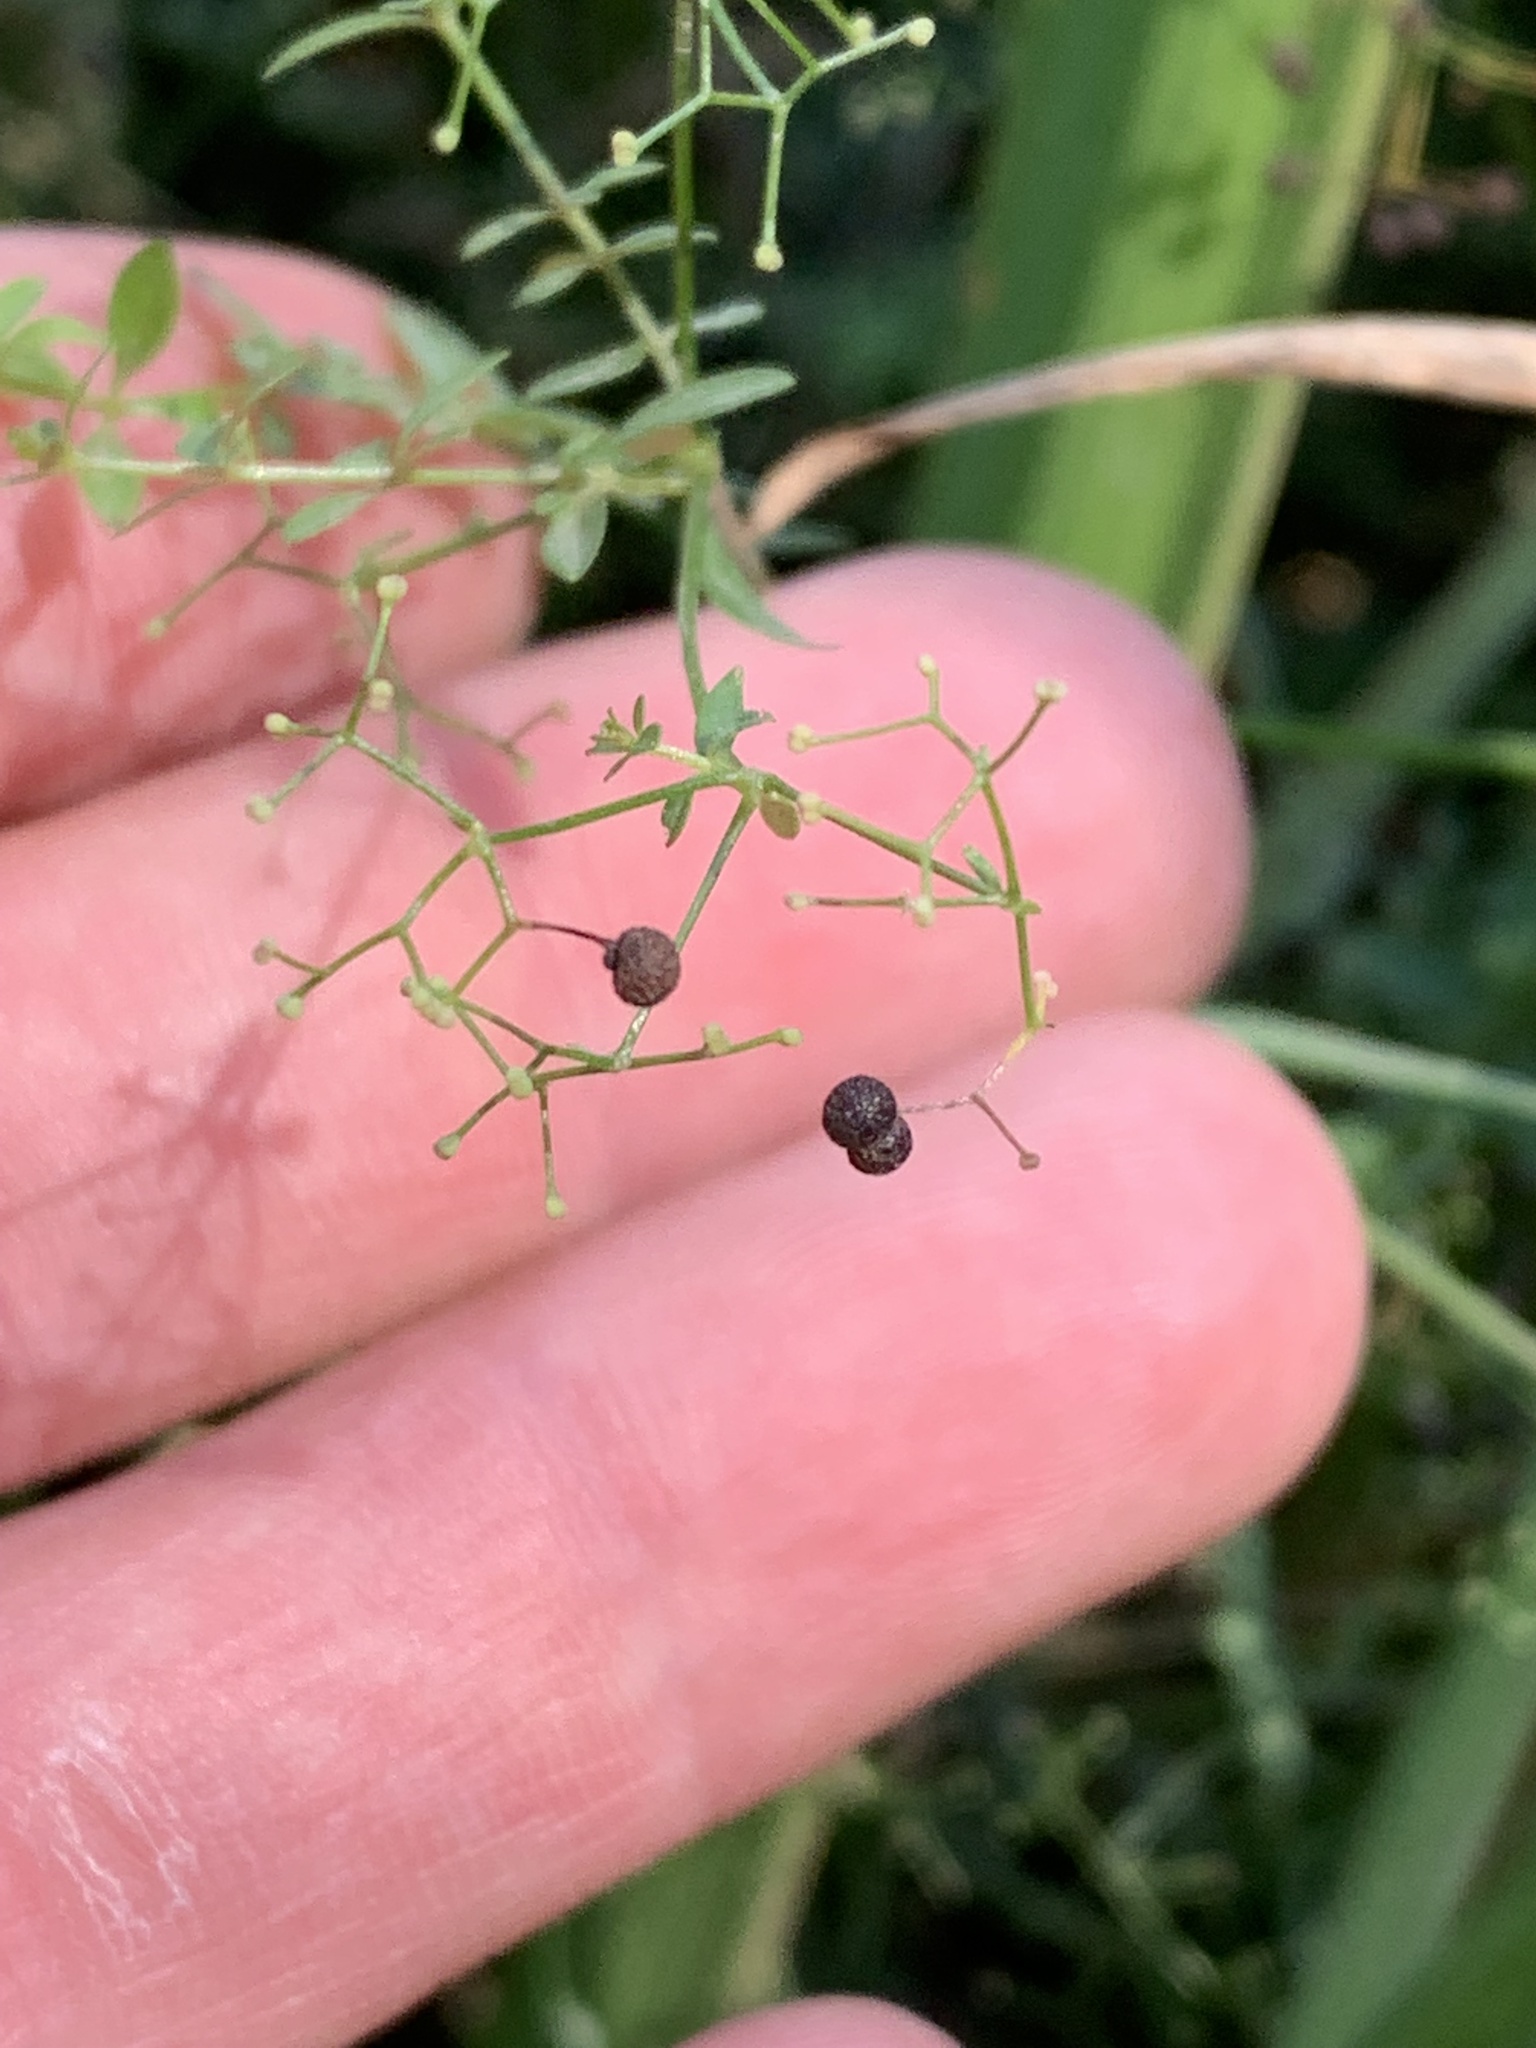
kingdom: Plantae
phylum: Tracheophyta
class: Magnoliopsida
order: Gentianales
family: Rubiaceae
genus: Galium
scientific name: Galium palustre
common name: Common marsh-bedstraw
